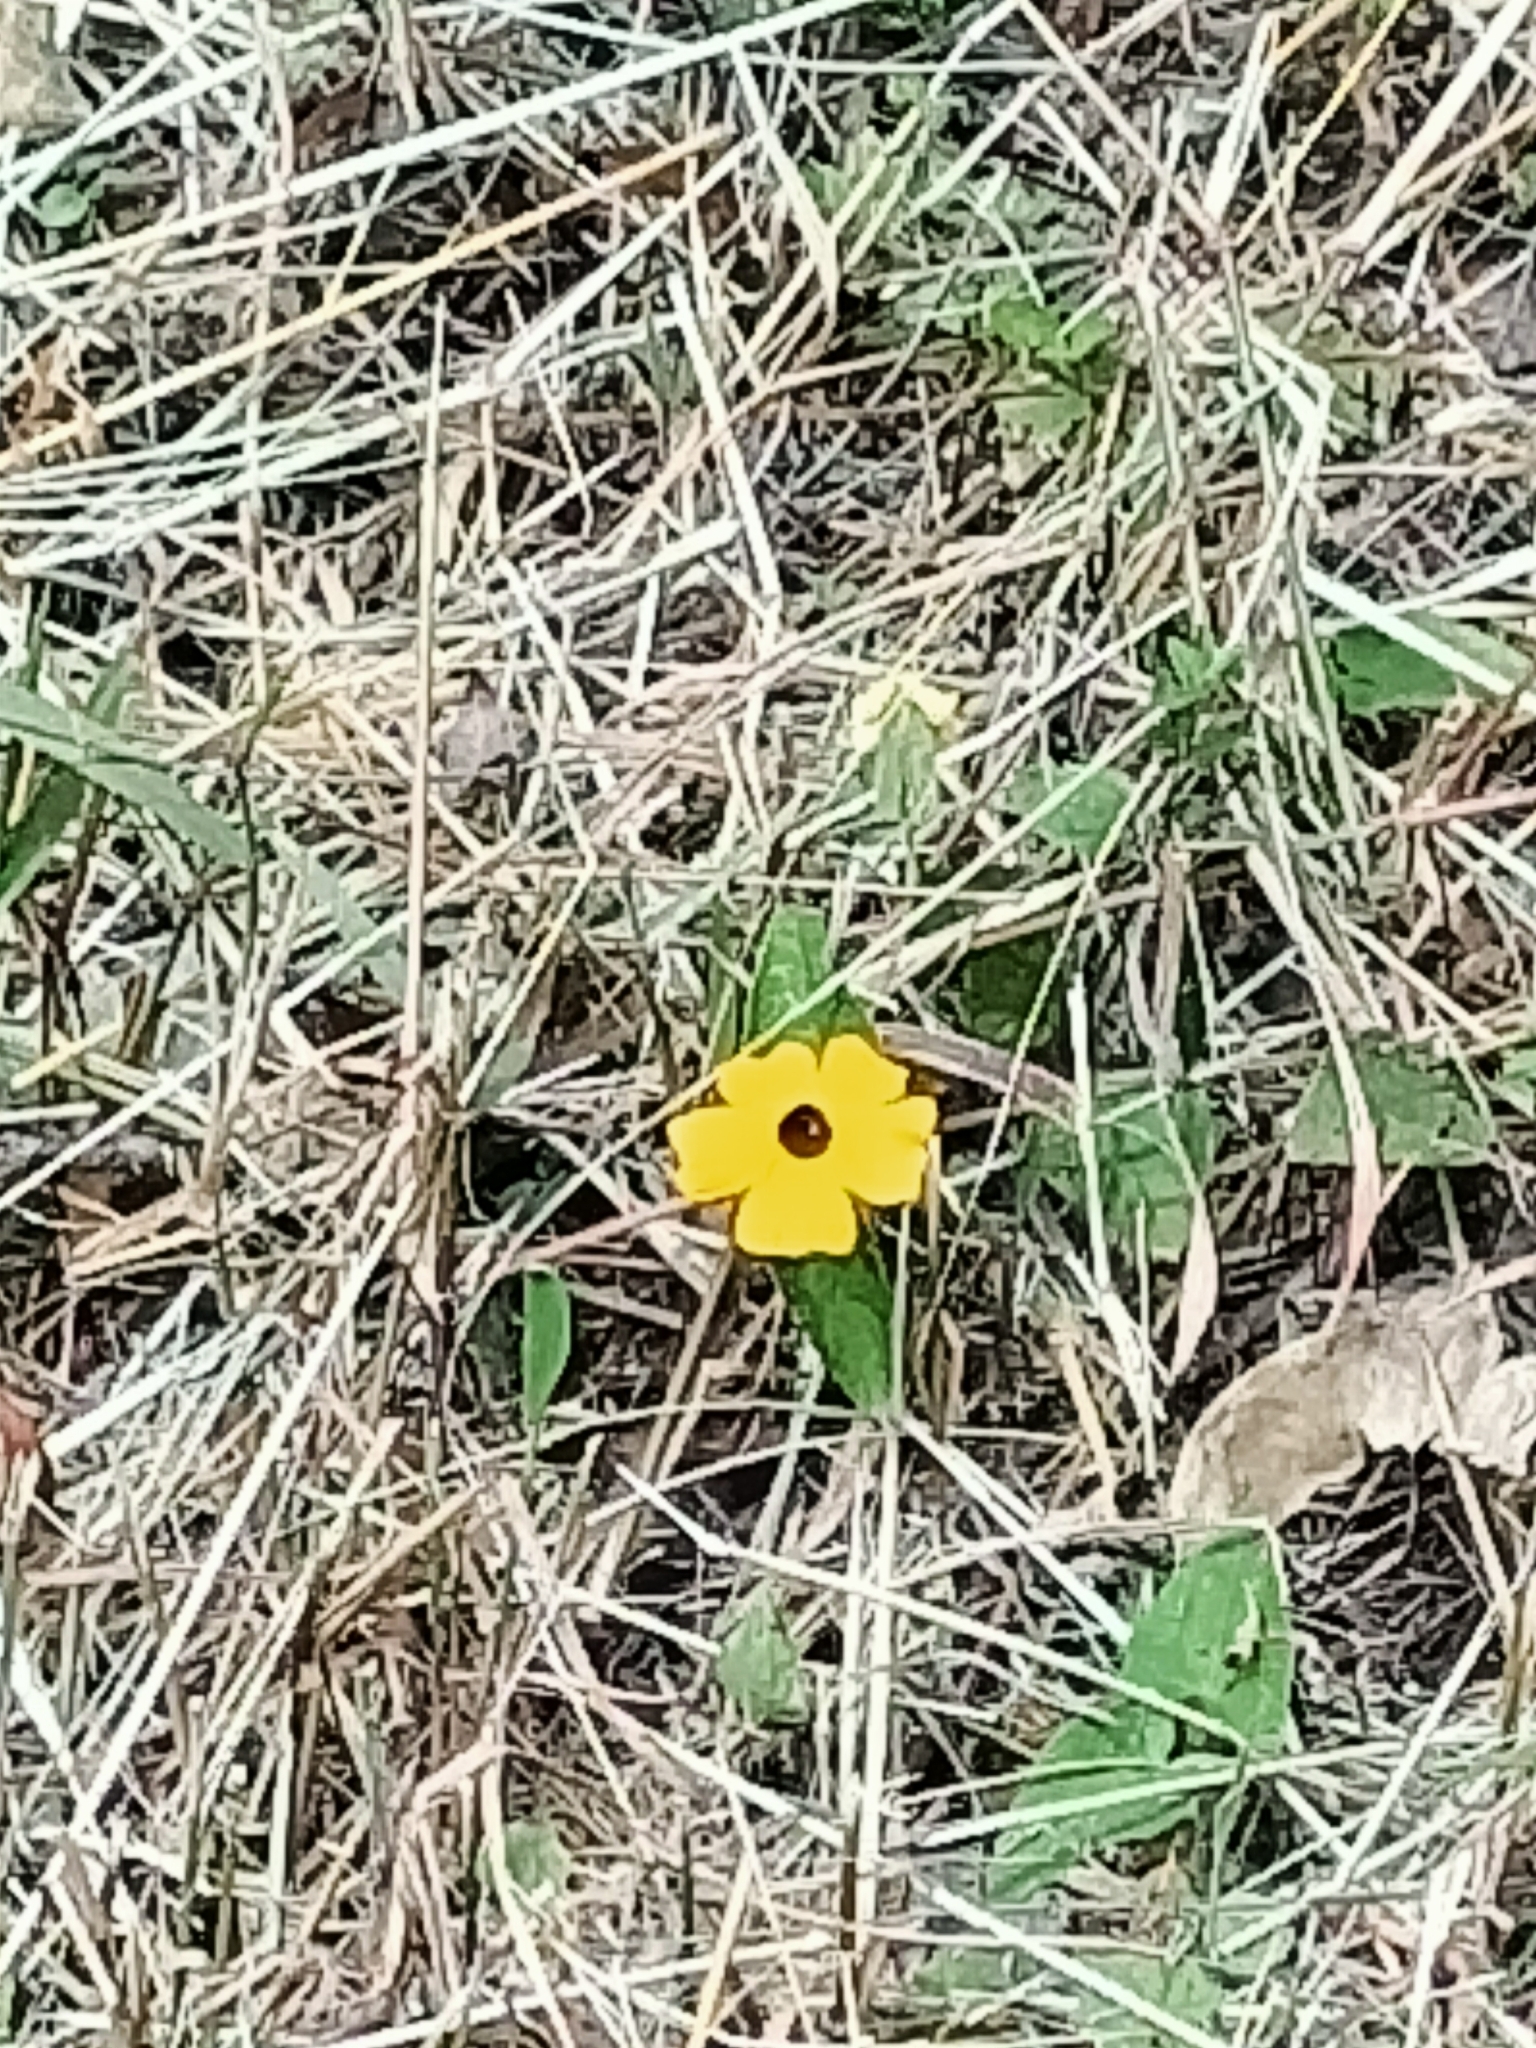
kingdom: Plantae
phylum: Tracheophyta
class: Magnoliopsida
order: Lamiales
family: Acanthaceae
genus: Thunbergia
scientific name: Thunbergia alata
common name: Blackeyed susan vine
